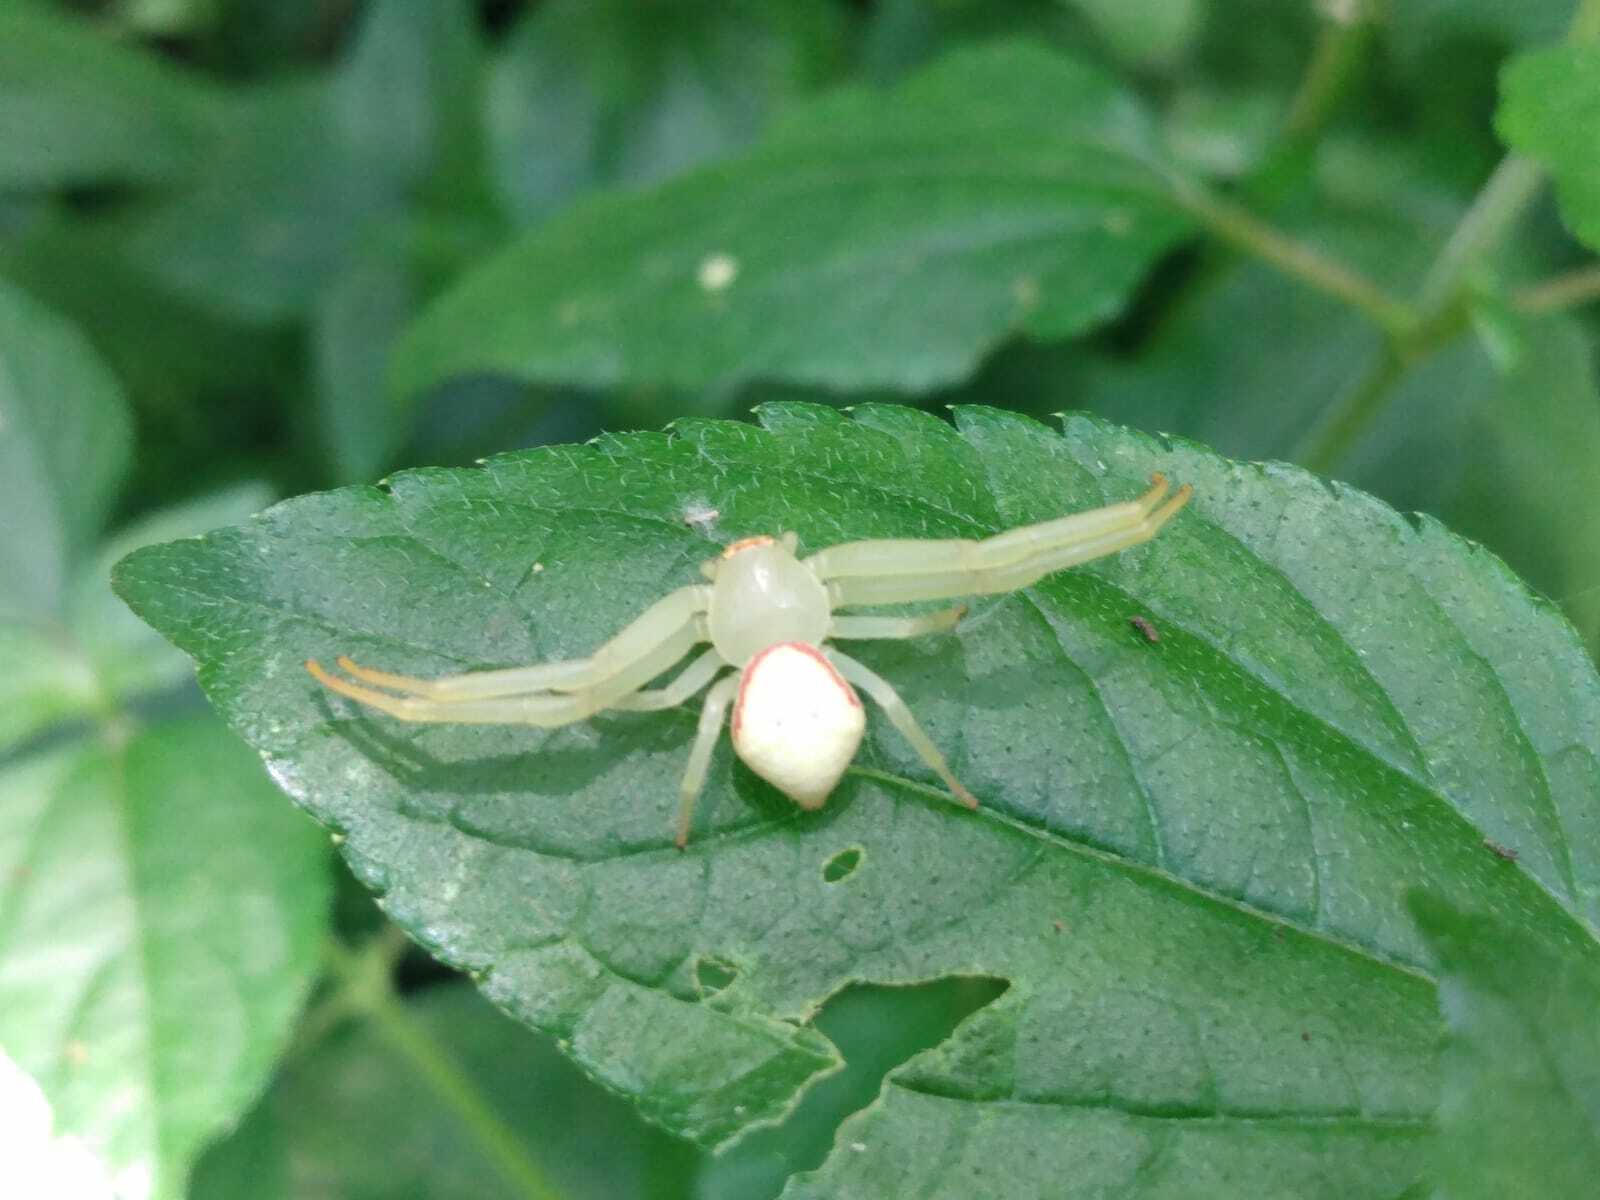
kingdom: Animalia
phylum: Arthropoda
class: Arachnida
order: Araneae
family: Thomisidae
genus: Misumenops
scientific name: Misumenops callinurus
